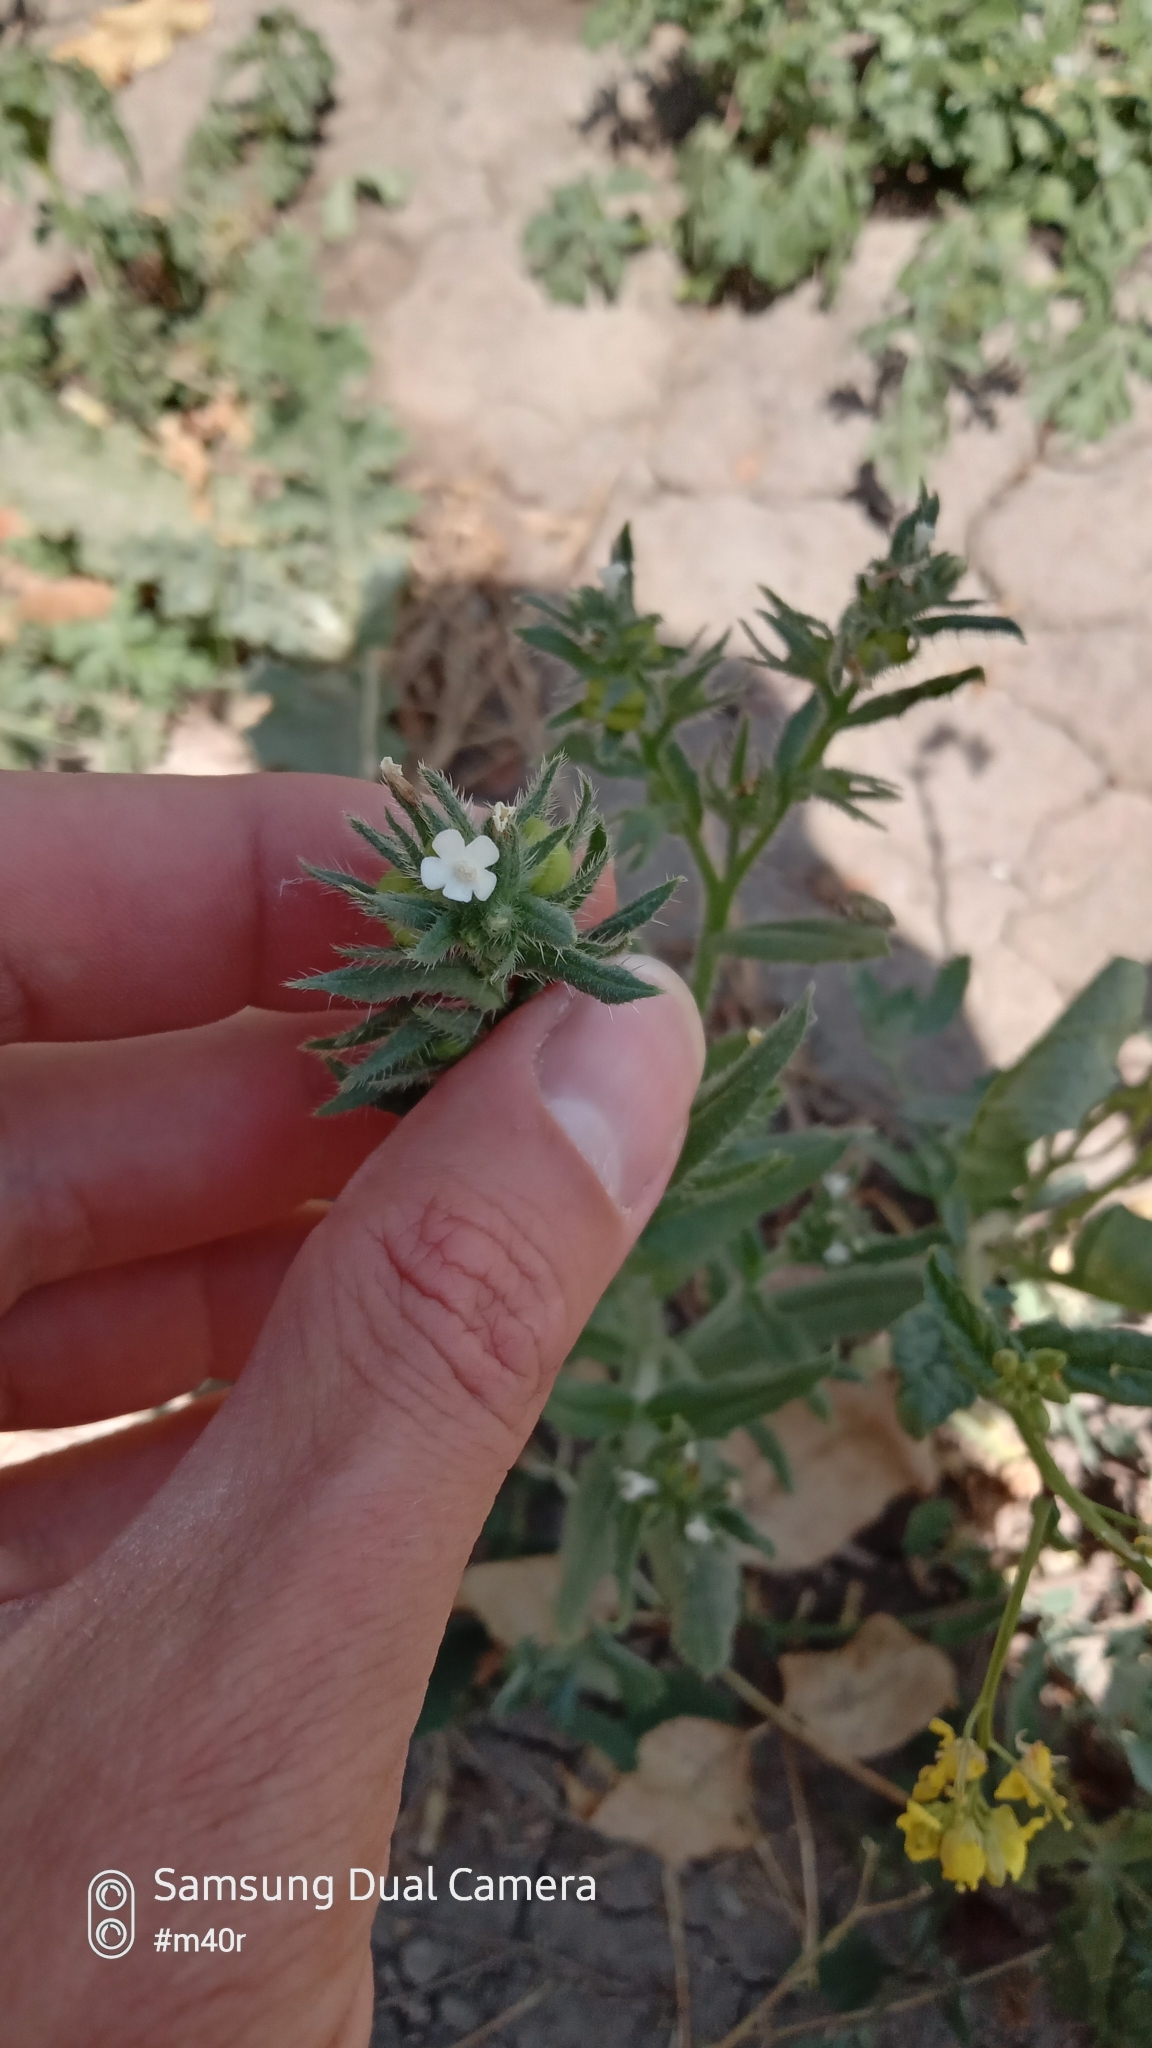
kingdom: Plantae
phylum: Tracheophyta
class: Magnoliopsida
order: Boraginales
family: Boraginaceae
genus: Buglossoides
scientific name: Buglossoides arvensis
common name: Corn gromwell
